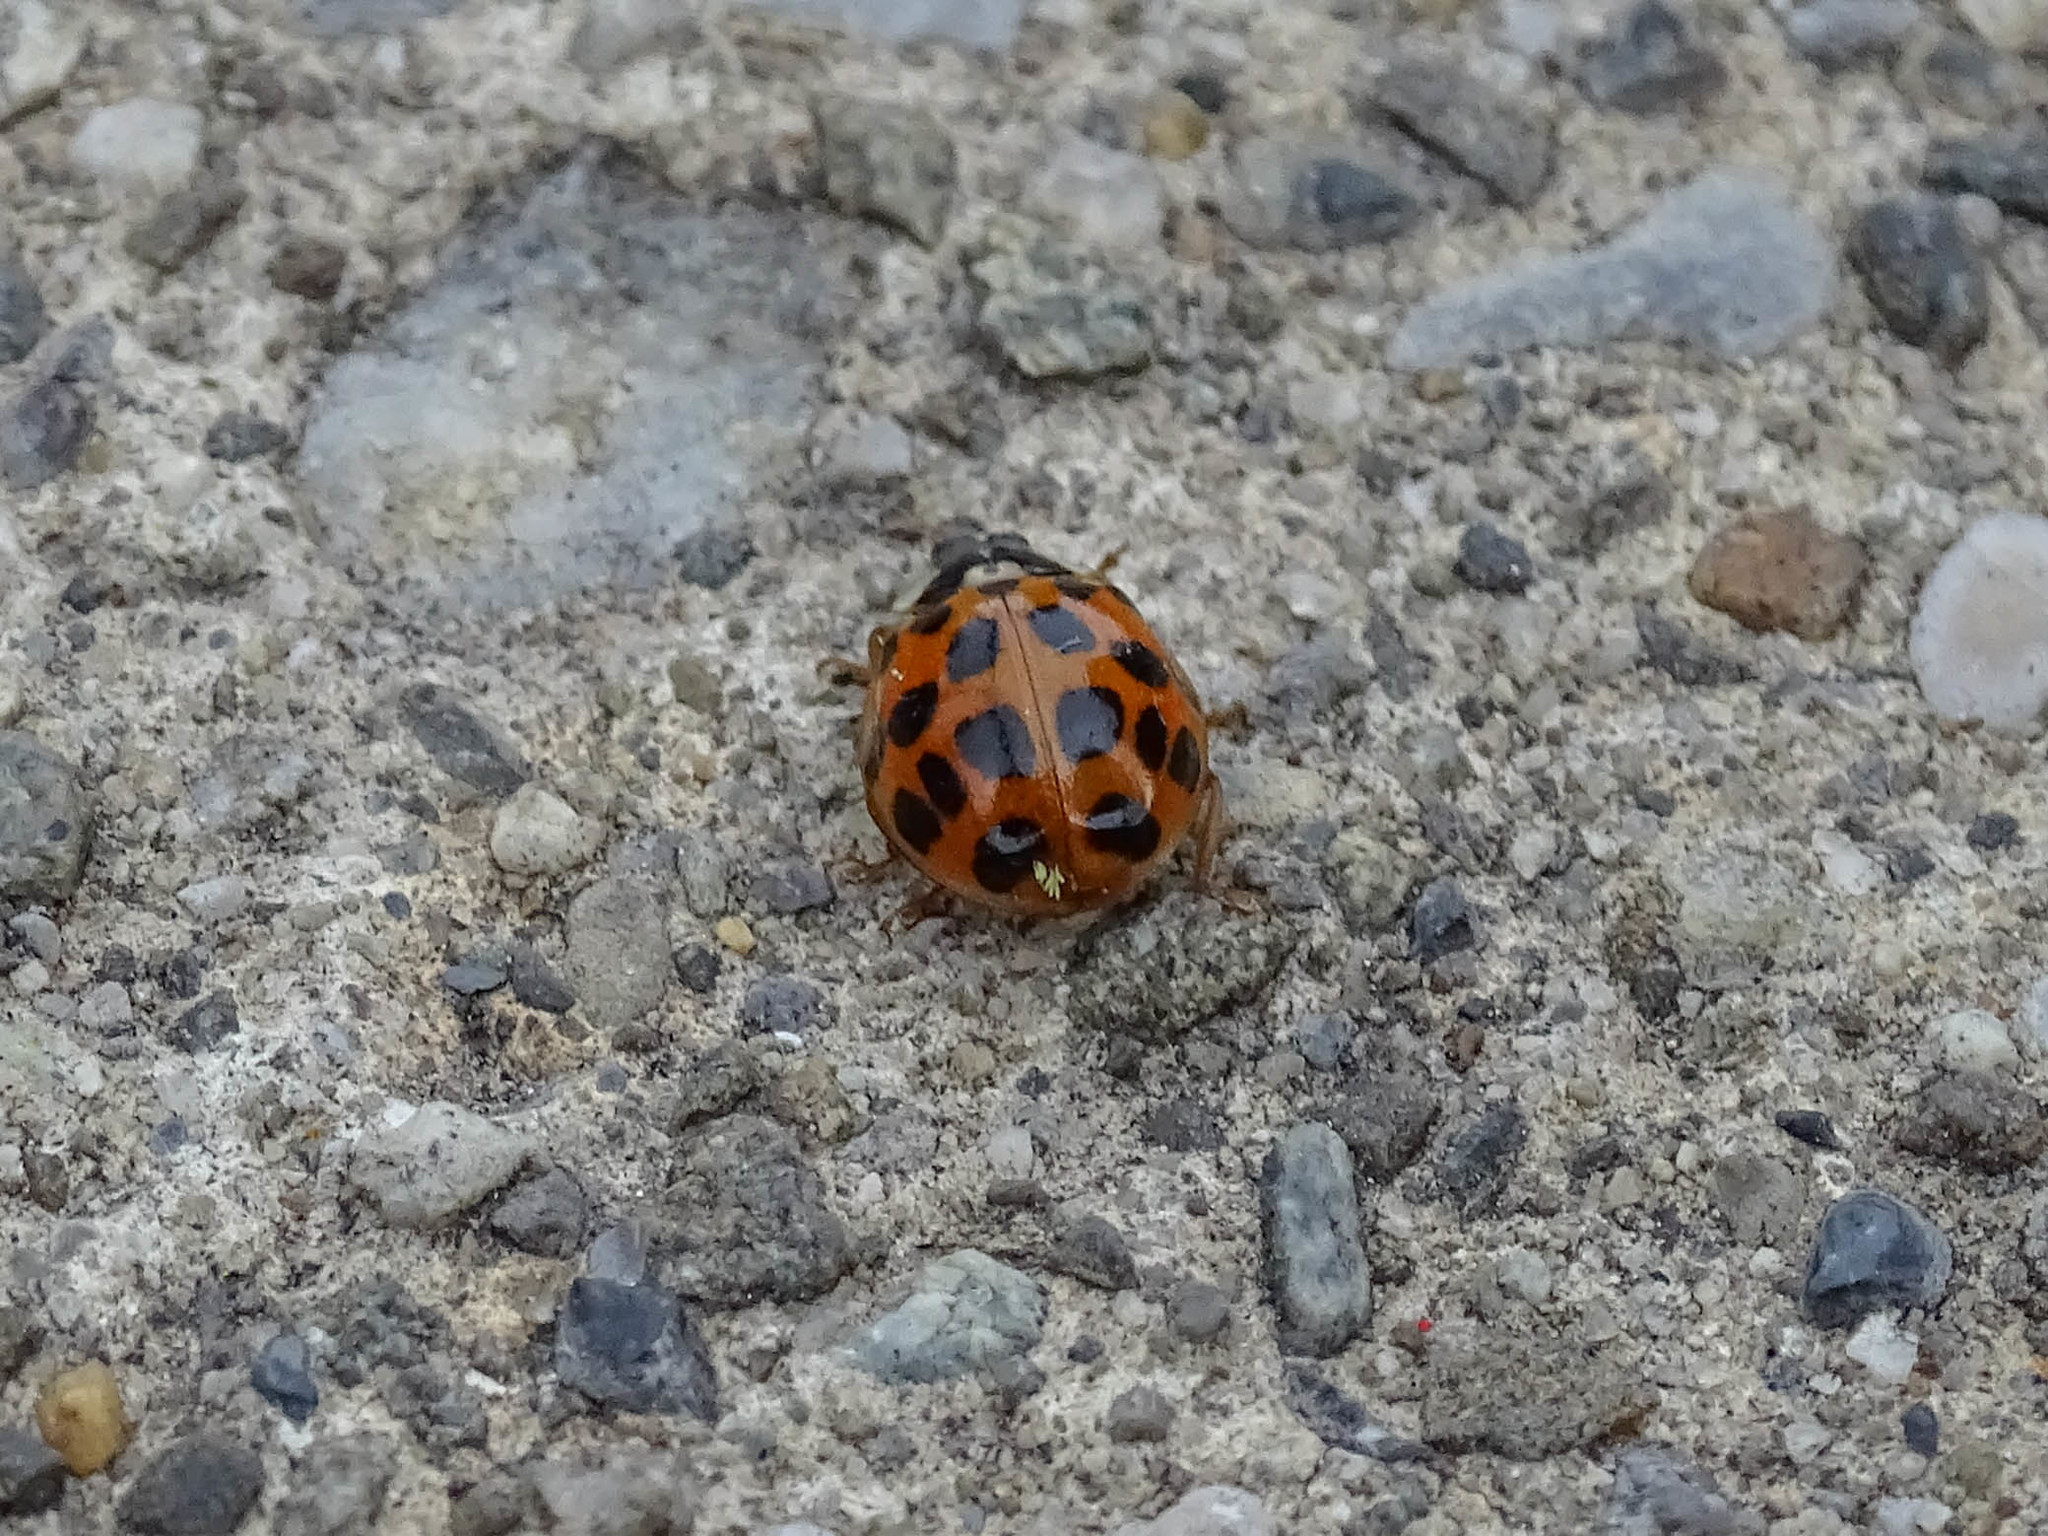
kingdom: Animalia
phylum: Arthropoda
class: Insecta
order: Coleoptera
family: Coccinellidae
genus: Harmonia
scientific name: Harmonia axyridis
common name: Harlequin ladybird
